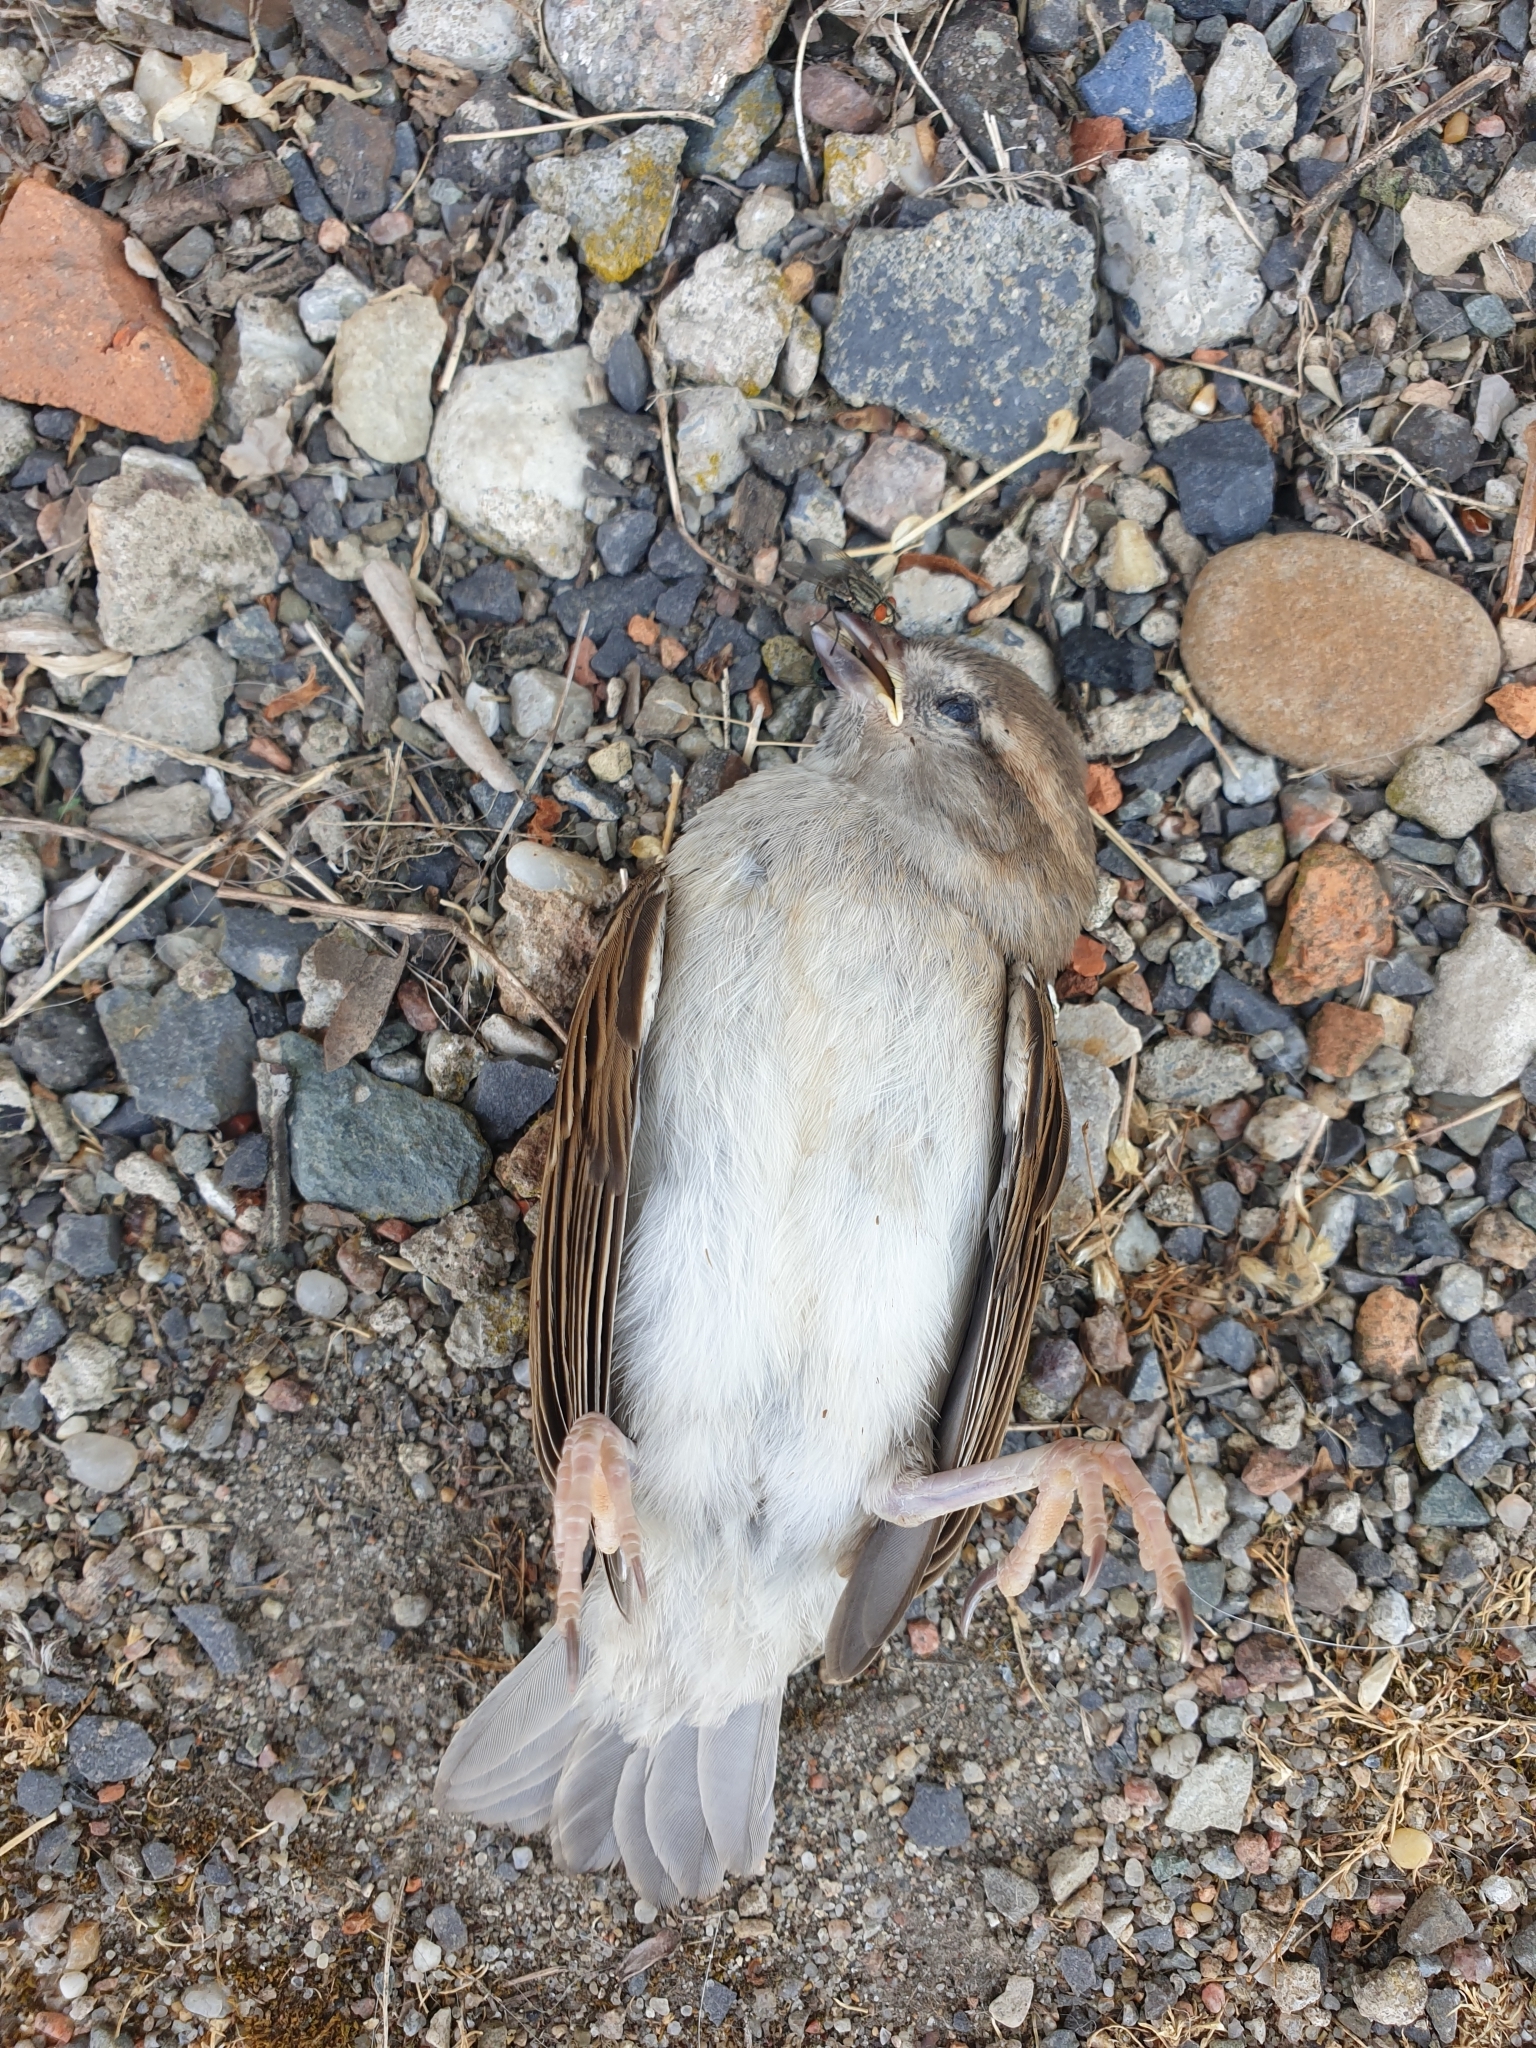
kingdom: Animalia
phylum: Chordata
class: Aves
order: Passeriformes
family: Passeridae
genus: Passer
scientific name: Passer domesticus
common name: House sparrow
